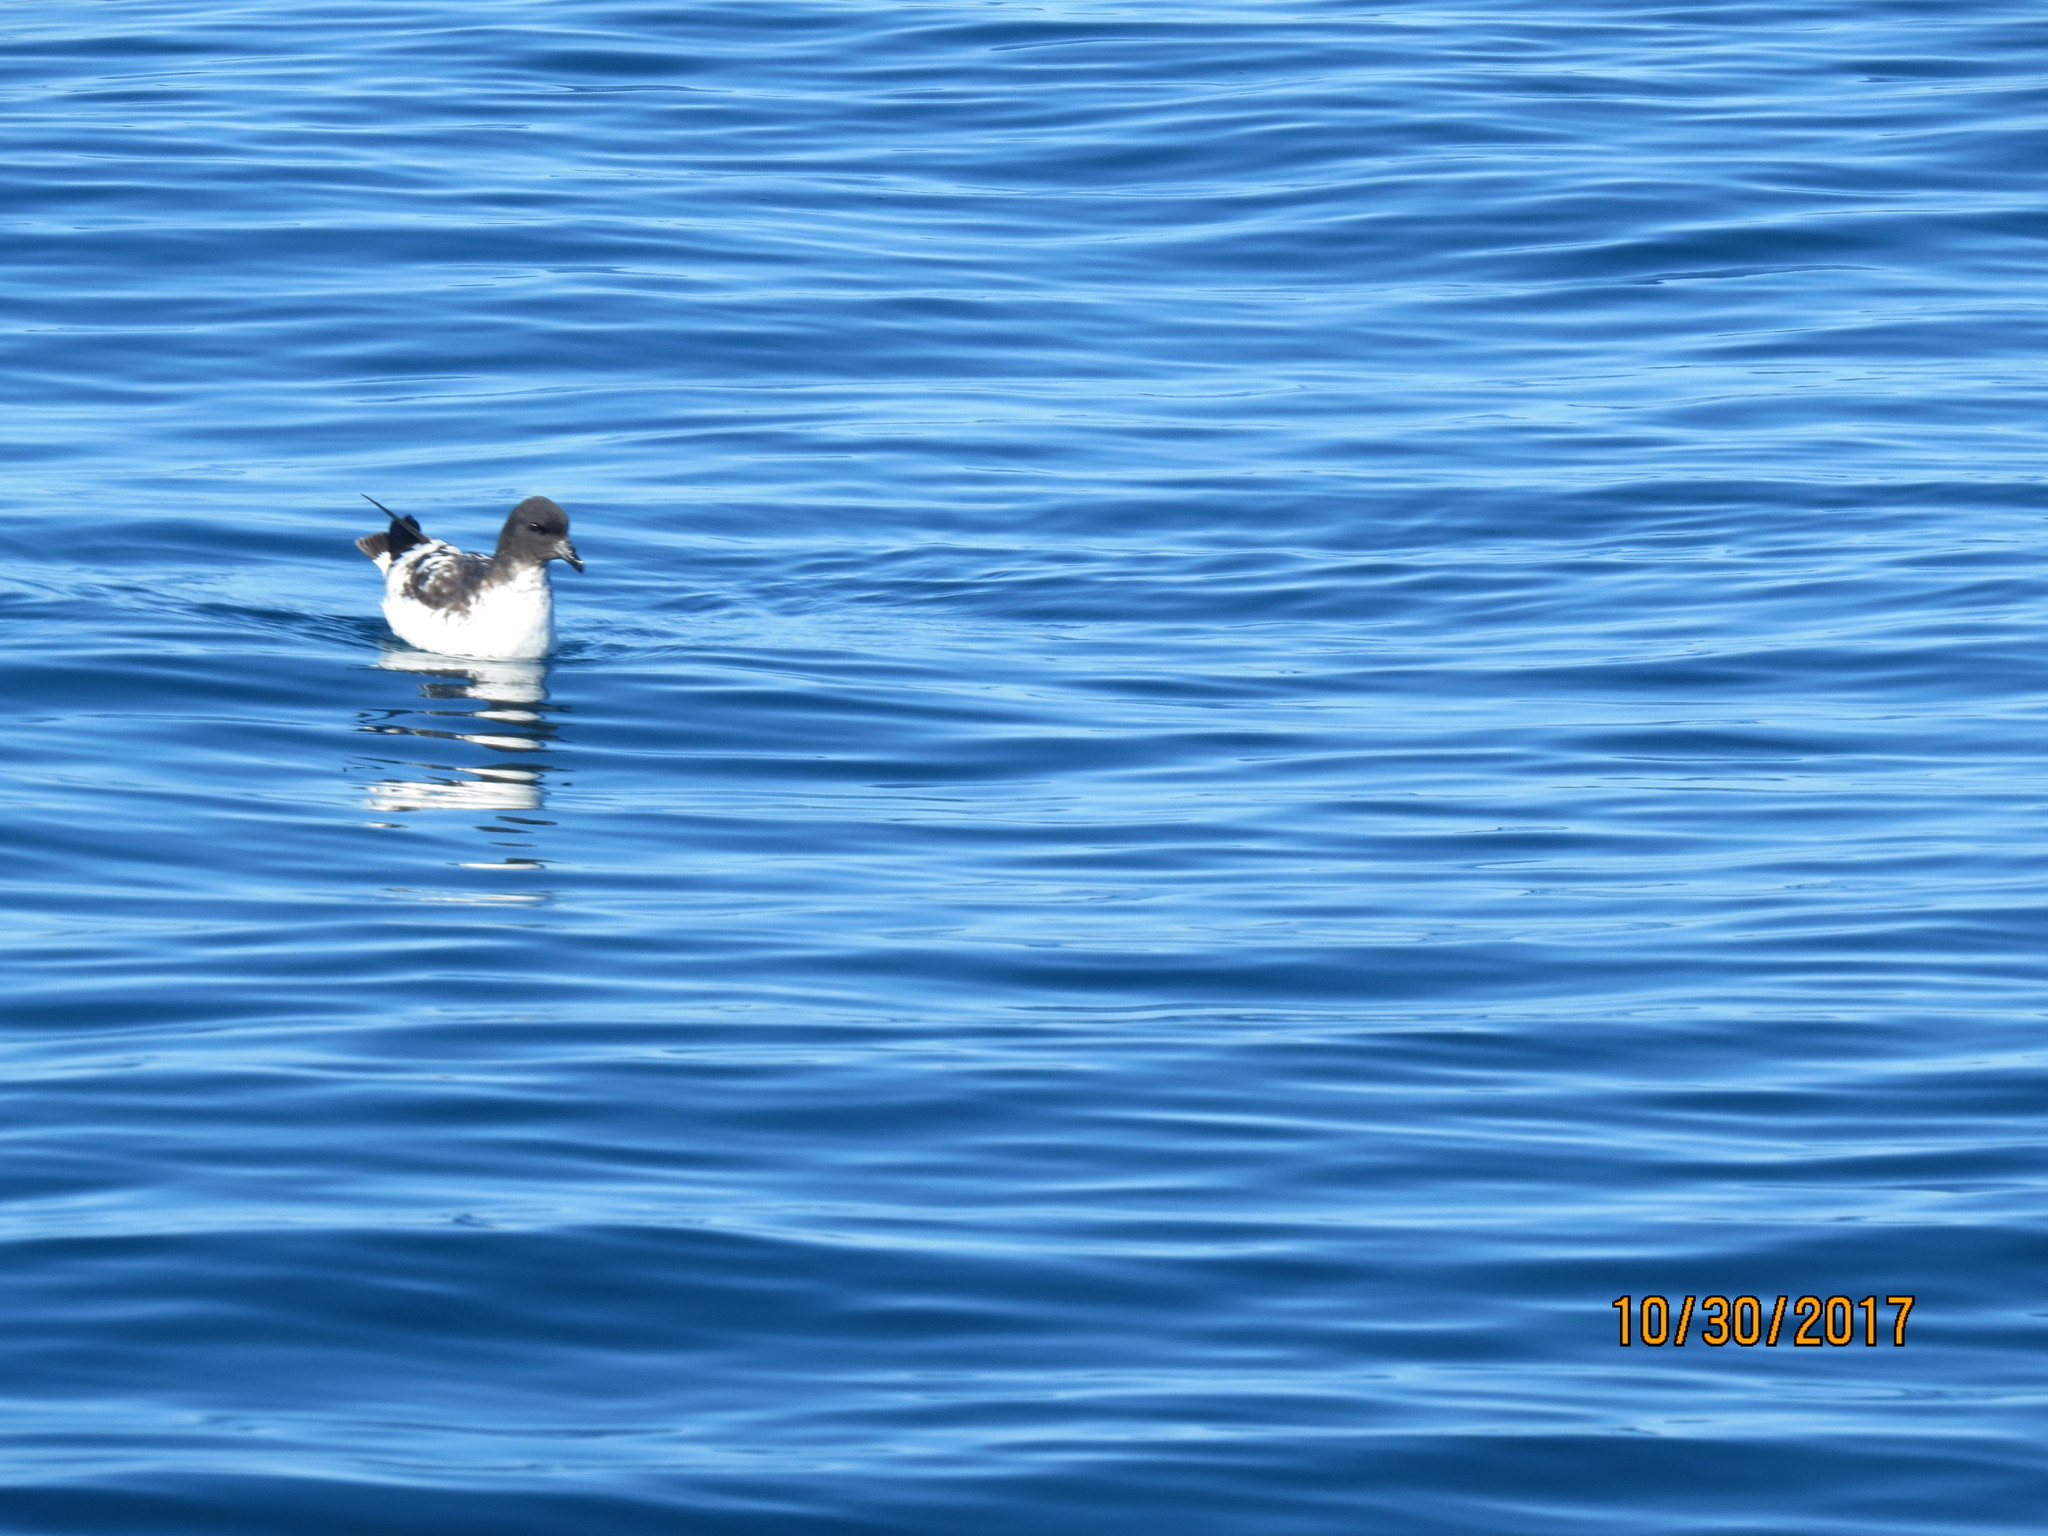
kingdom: Animalia
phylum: Chordata
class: Aves
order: Procellariiformes
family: Procellariidae
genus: Daption
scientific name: Daption capense
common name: Cape petrel
